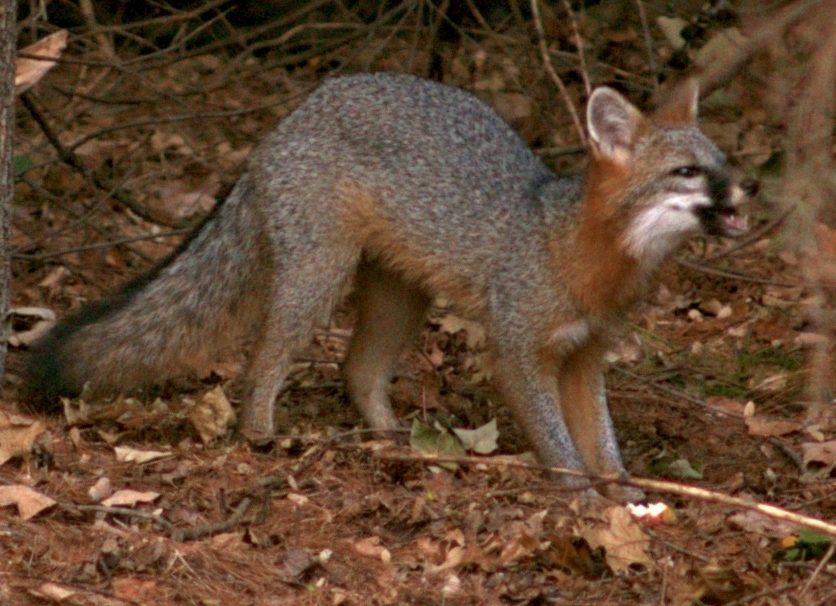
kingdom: Animalia
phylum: Chordata
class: Mammalia
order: Carnivora
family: Canidae
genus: Urocyon
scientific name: Urocyon cinereoargenteus
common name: Gray fox
